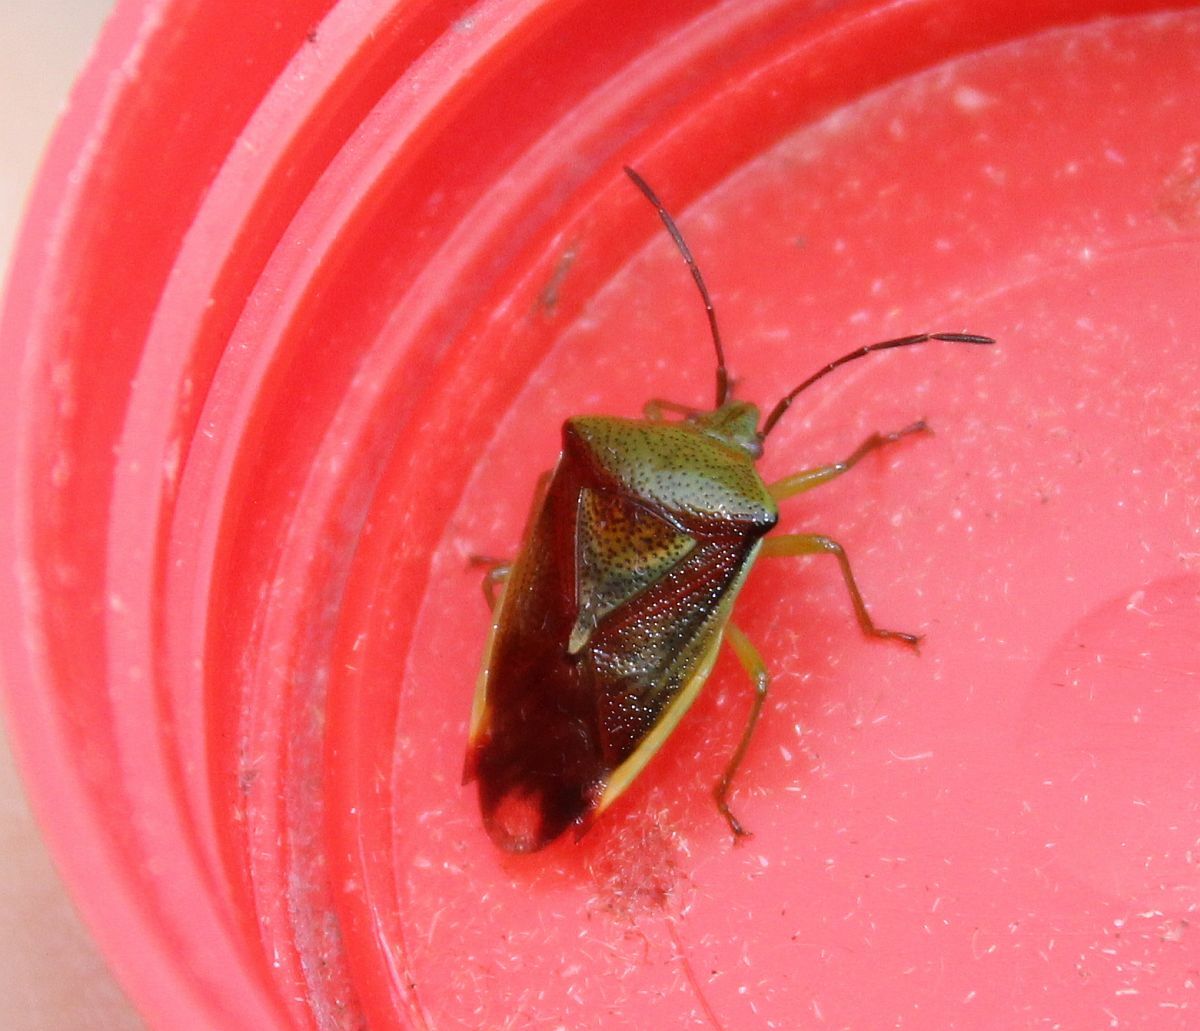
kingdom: Animalia
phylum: Arthropoda
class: Insecta
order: Hemiptera
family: Acanthosomatidae
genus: Elasmostethus
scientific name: Elasmostethus interstinctus
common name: Birch shieldbug
